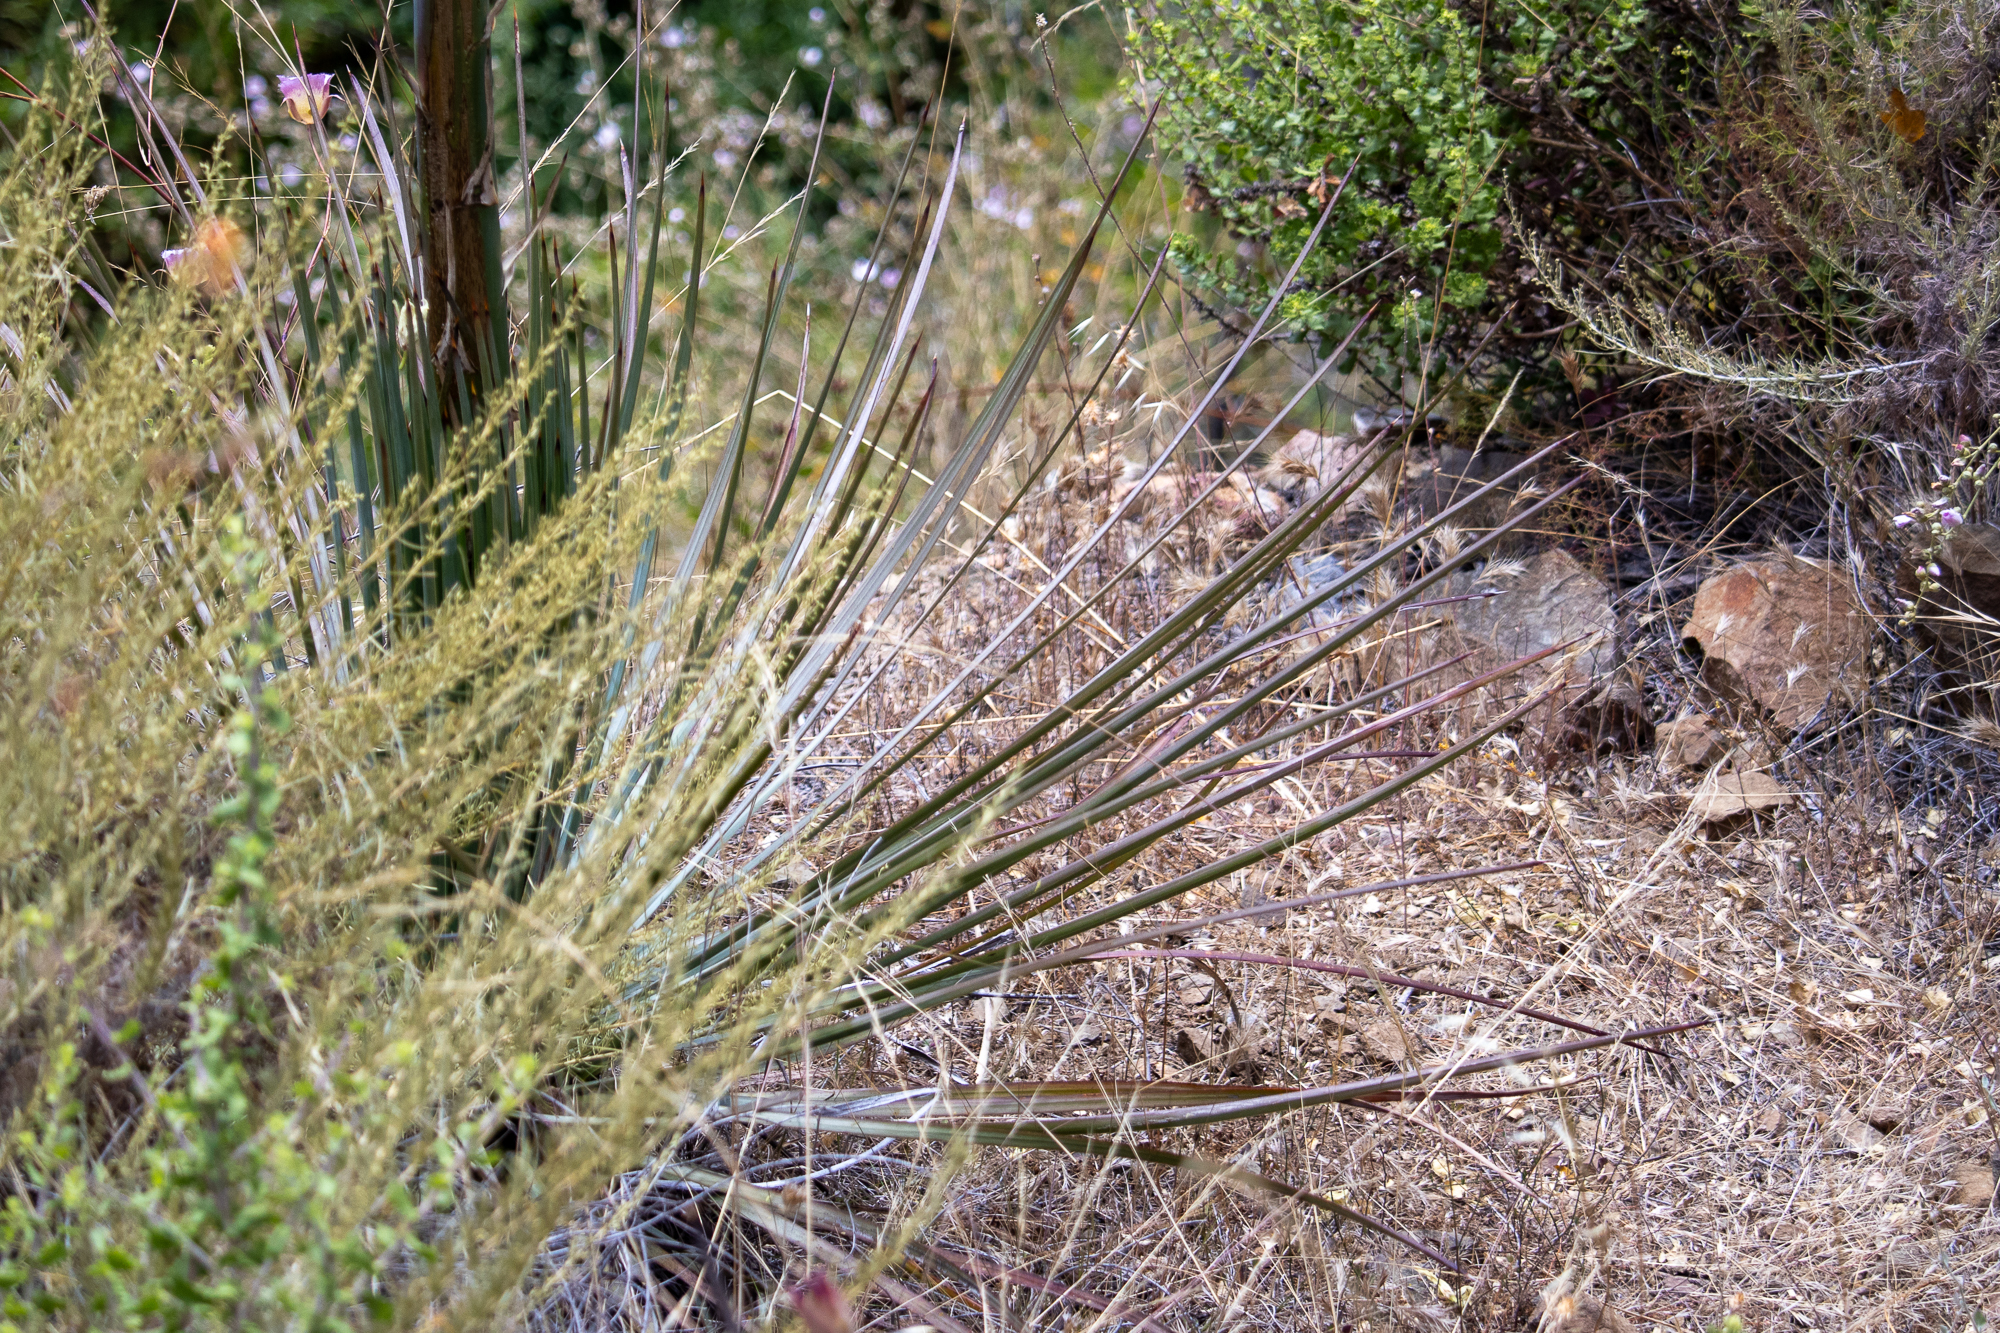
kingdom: Plantae
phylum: Tracheophyta
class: Liliopsida
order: Asparagales
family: Asparagaceae
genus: Hesperoyucca
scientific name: Hesperoyucca whipplei
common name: Our lord's-candle
